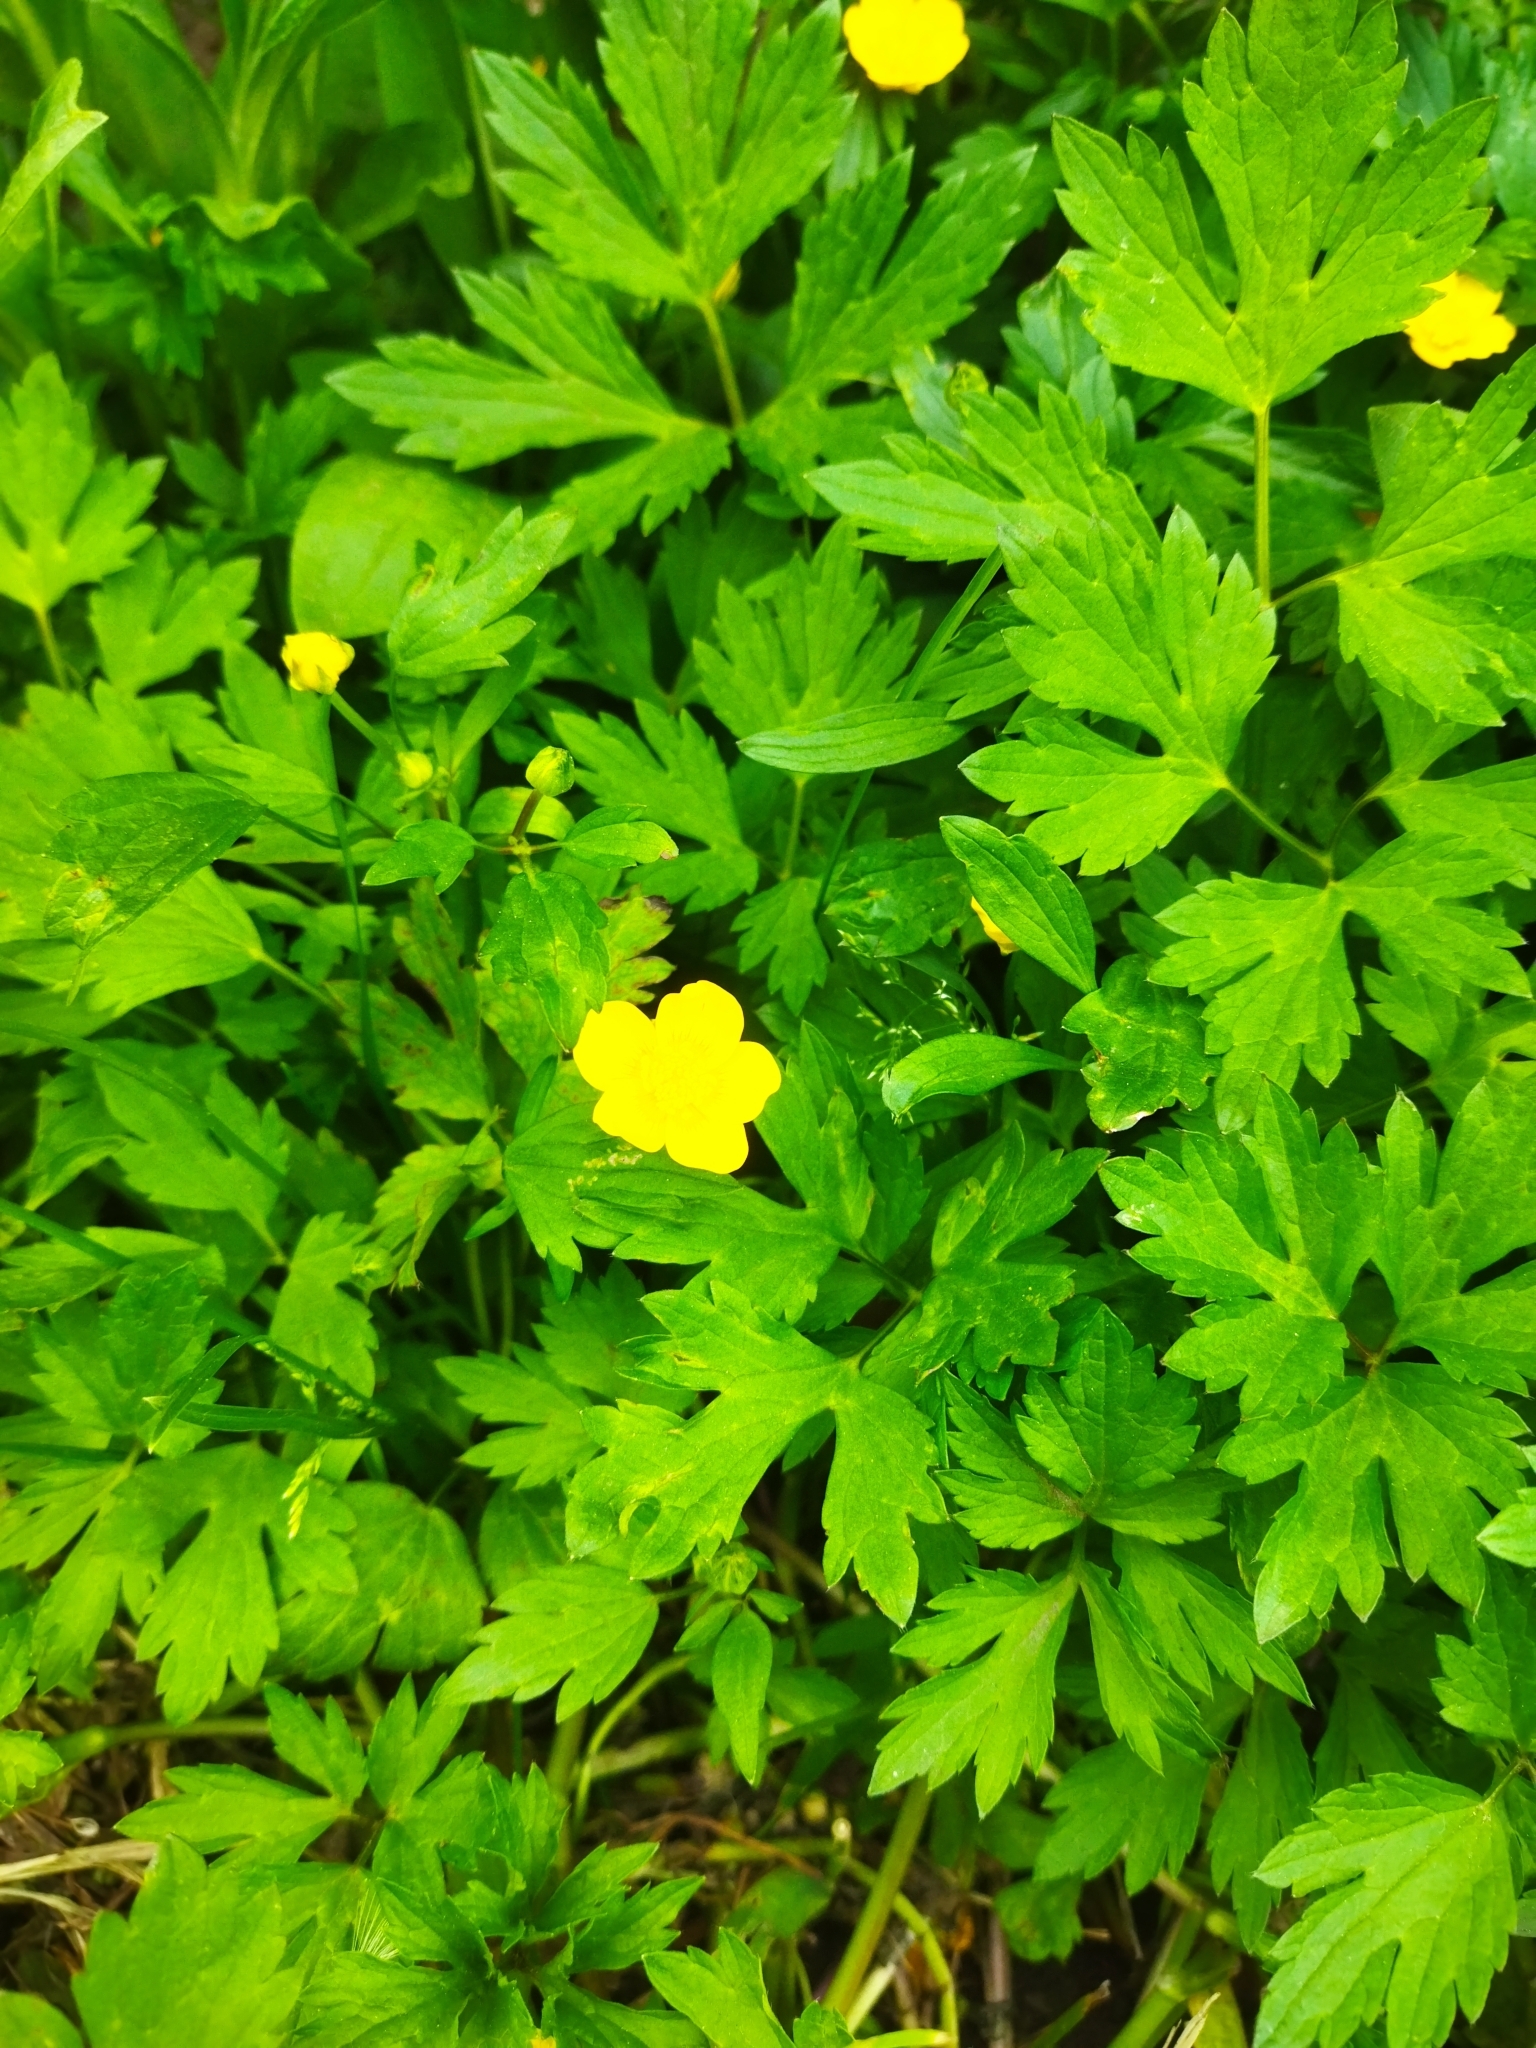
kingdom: Plantae
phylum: Tracheophyta
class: Magnoliopsida
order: Ranunculales
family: Ranunculaceae
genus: Ranunculus
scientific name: Ranunculus repens
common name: Creeping buttercup
